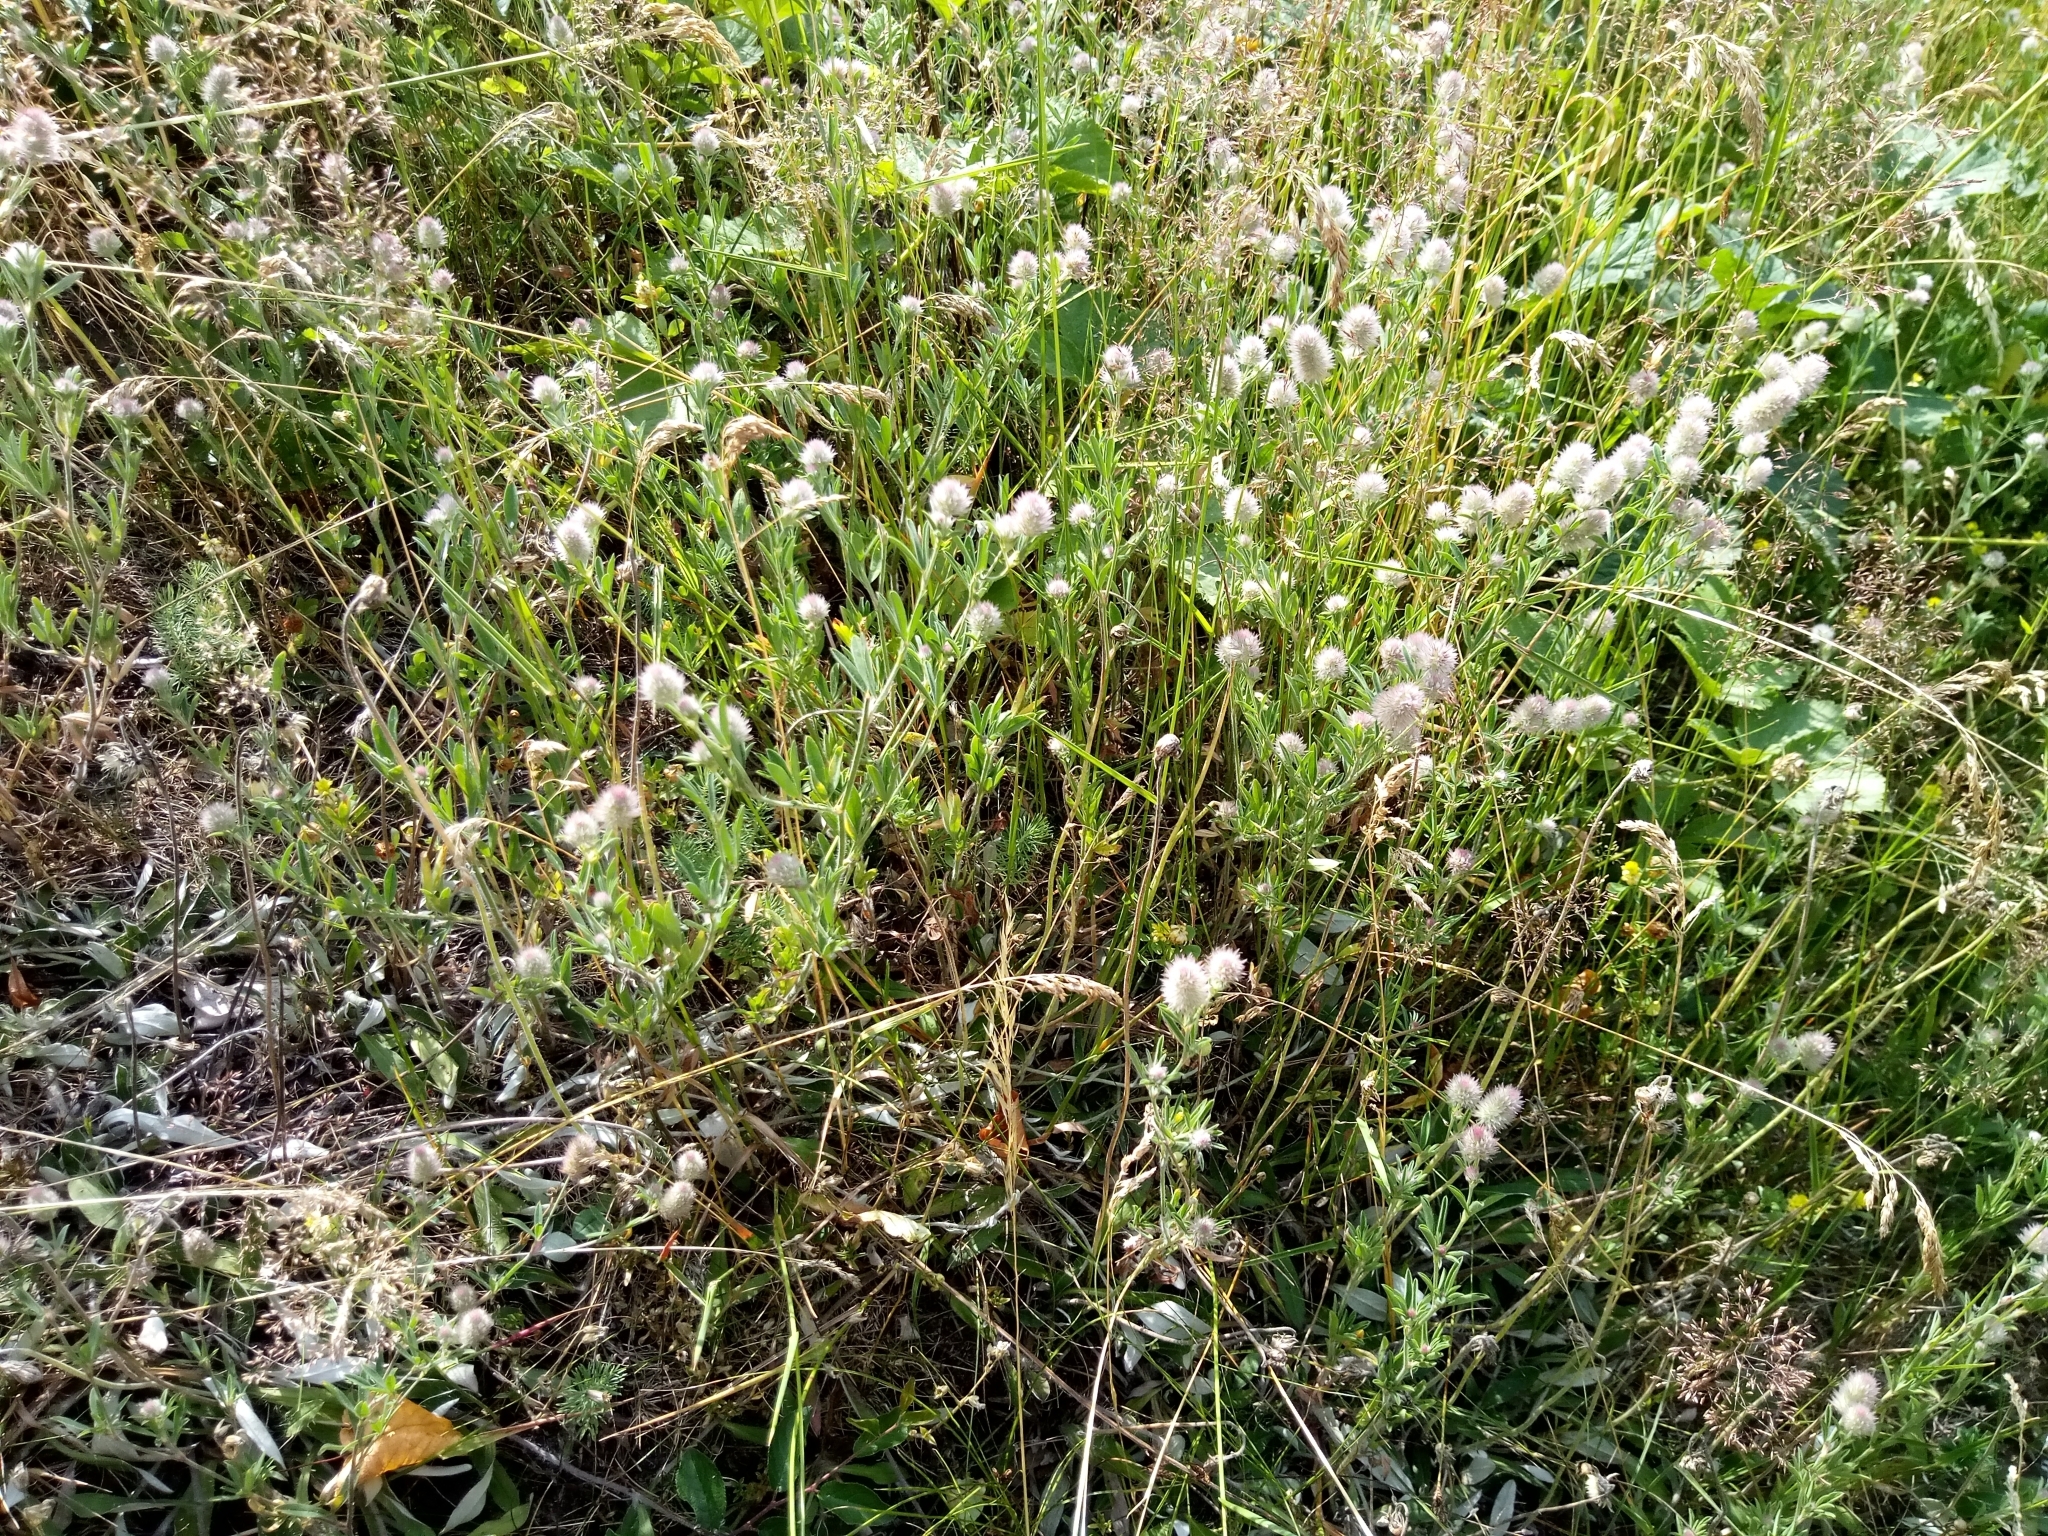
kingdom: Plantae
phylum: Tracheophyta
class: Magnoliopsida
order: Fabales
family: Fabaceae
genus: Trifolium
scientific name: Trifolium arvense
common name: Hare's-foot clover
